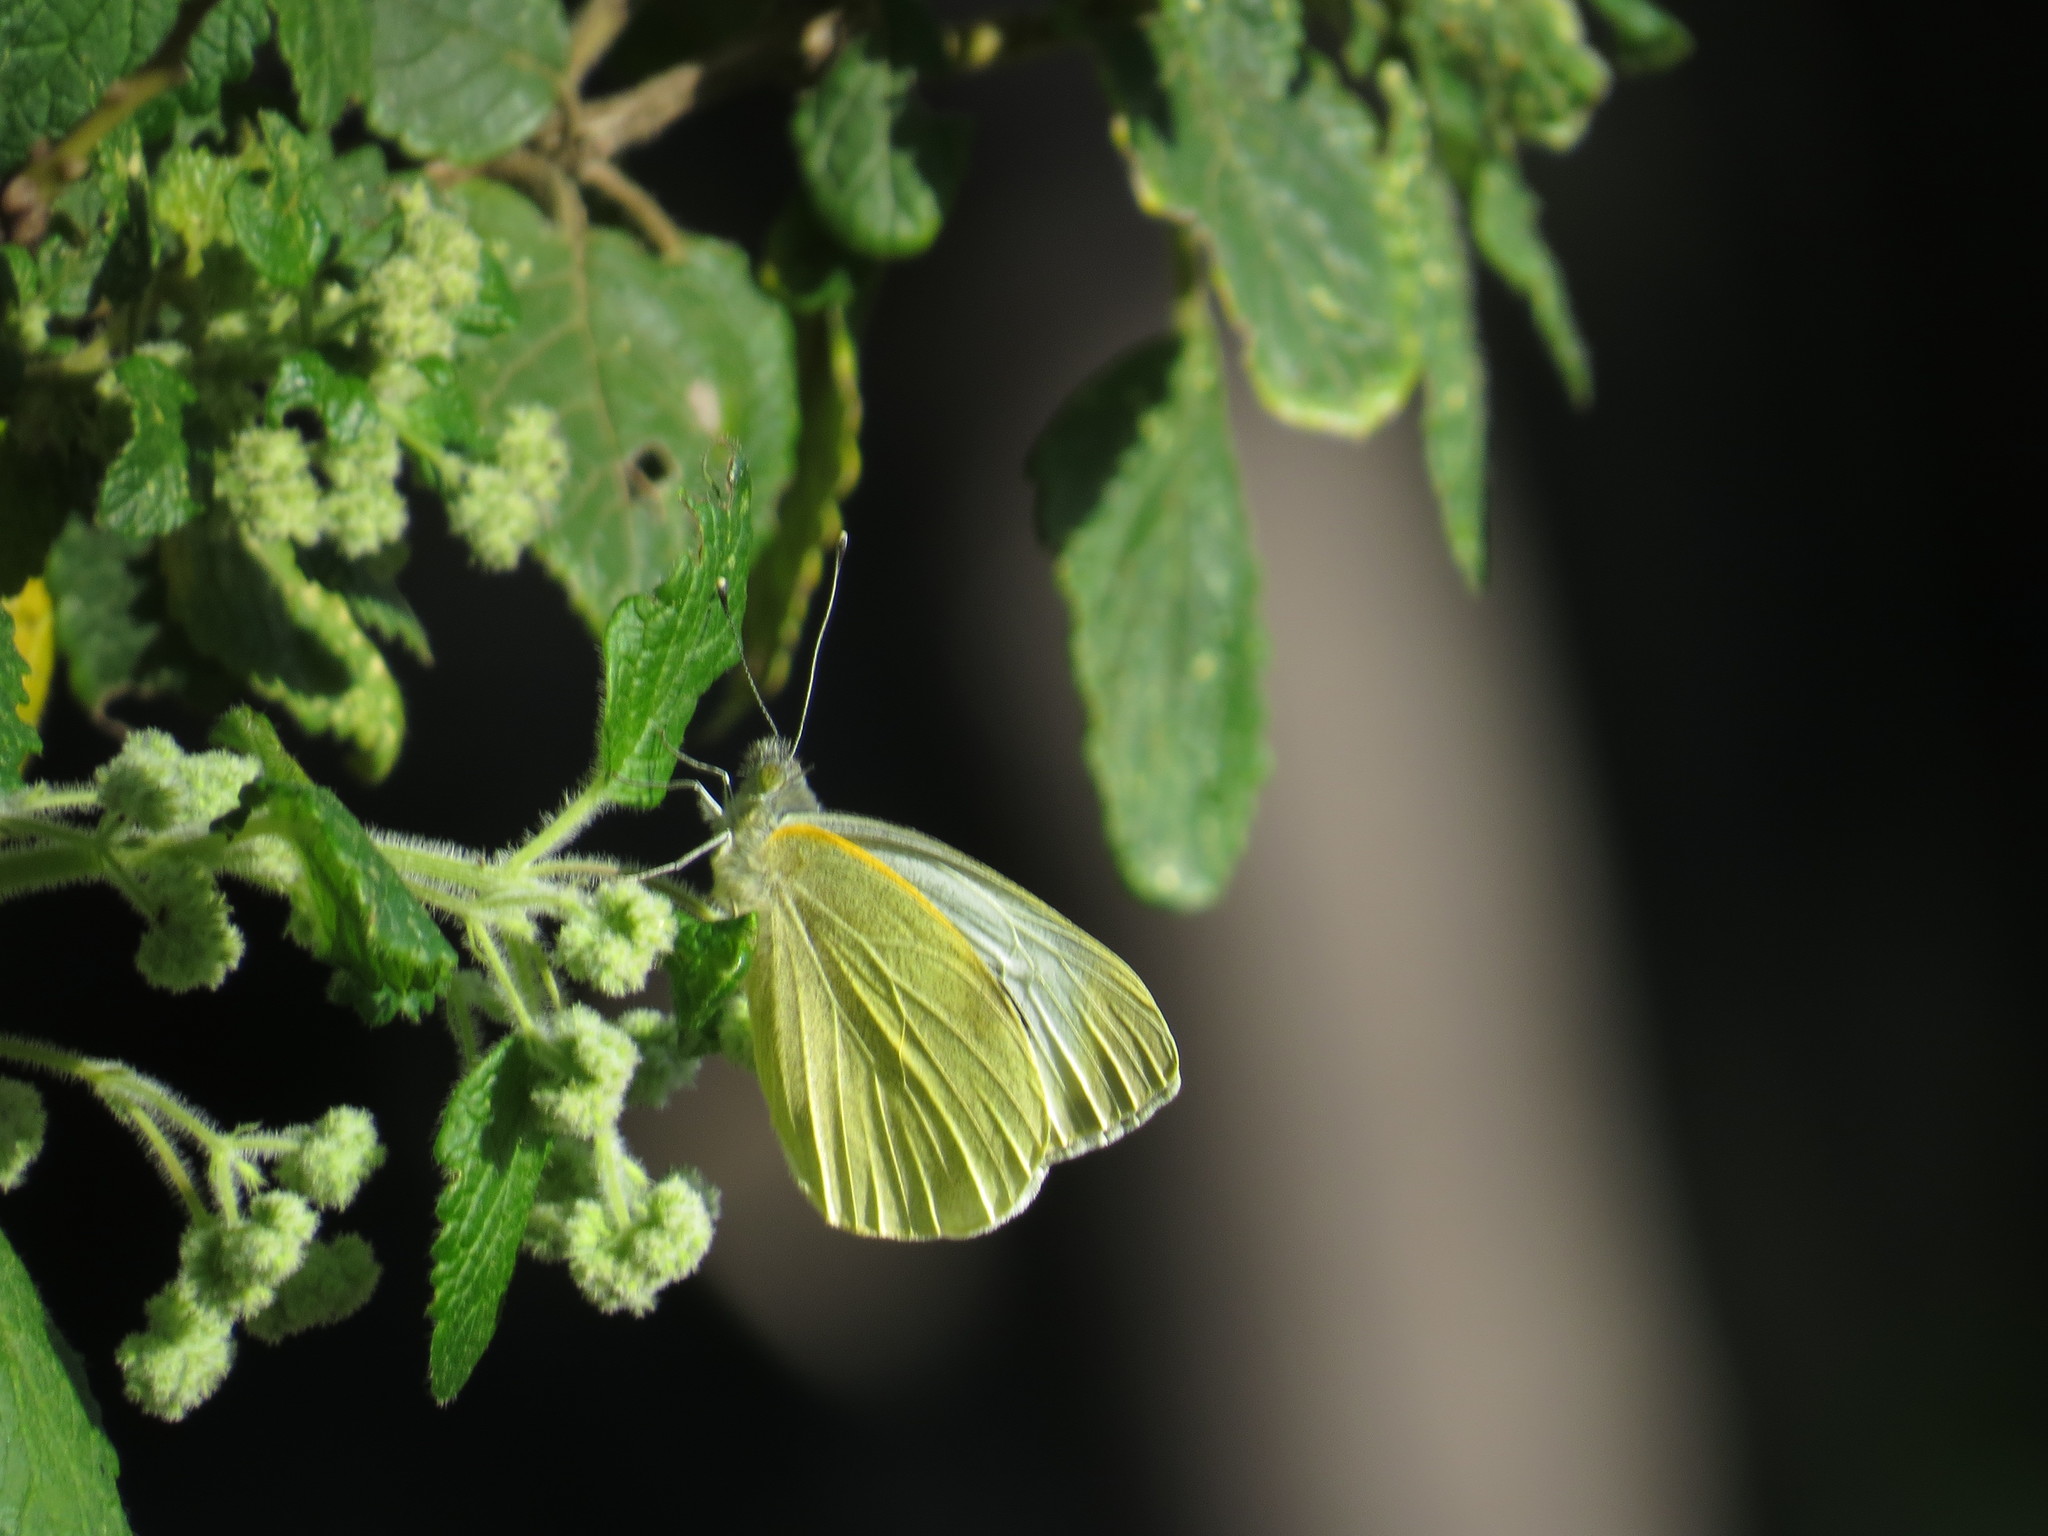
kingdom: Animalia
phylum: Arthropoda
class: Insecta
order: Lepidoptera
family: Pieridae
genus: Pieris
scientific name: Pieris cheiranthi
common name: Canary islands large white
